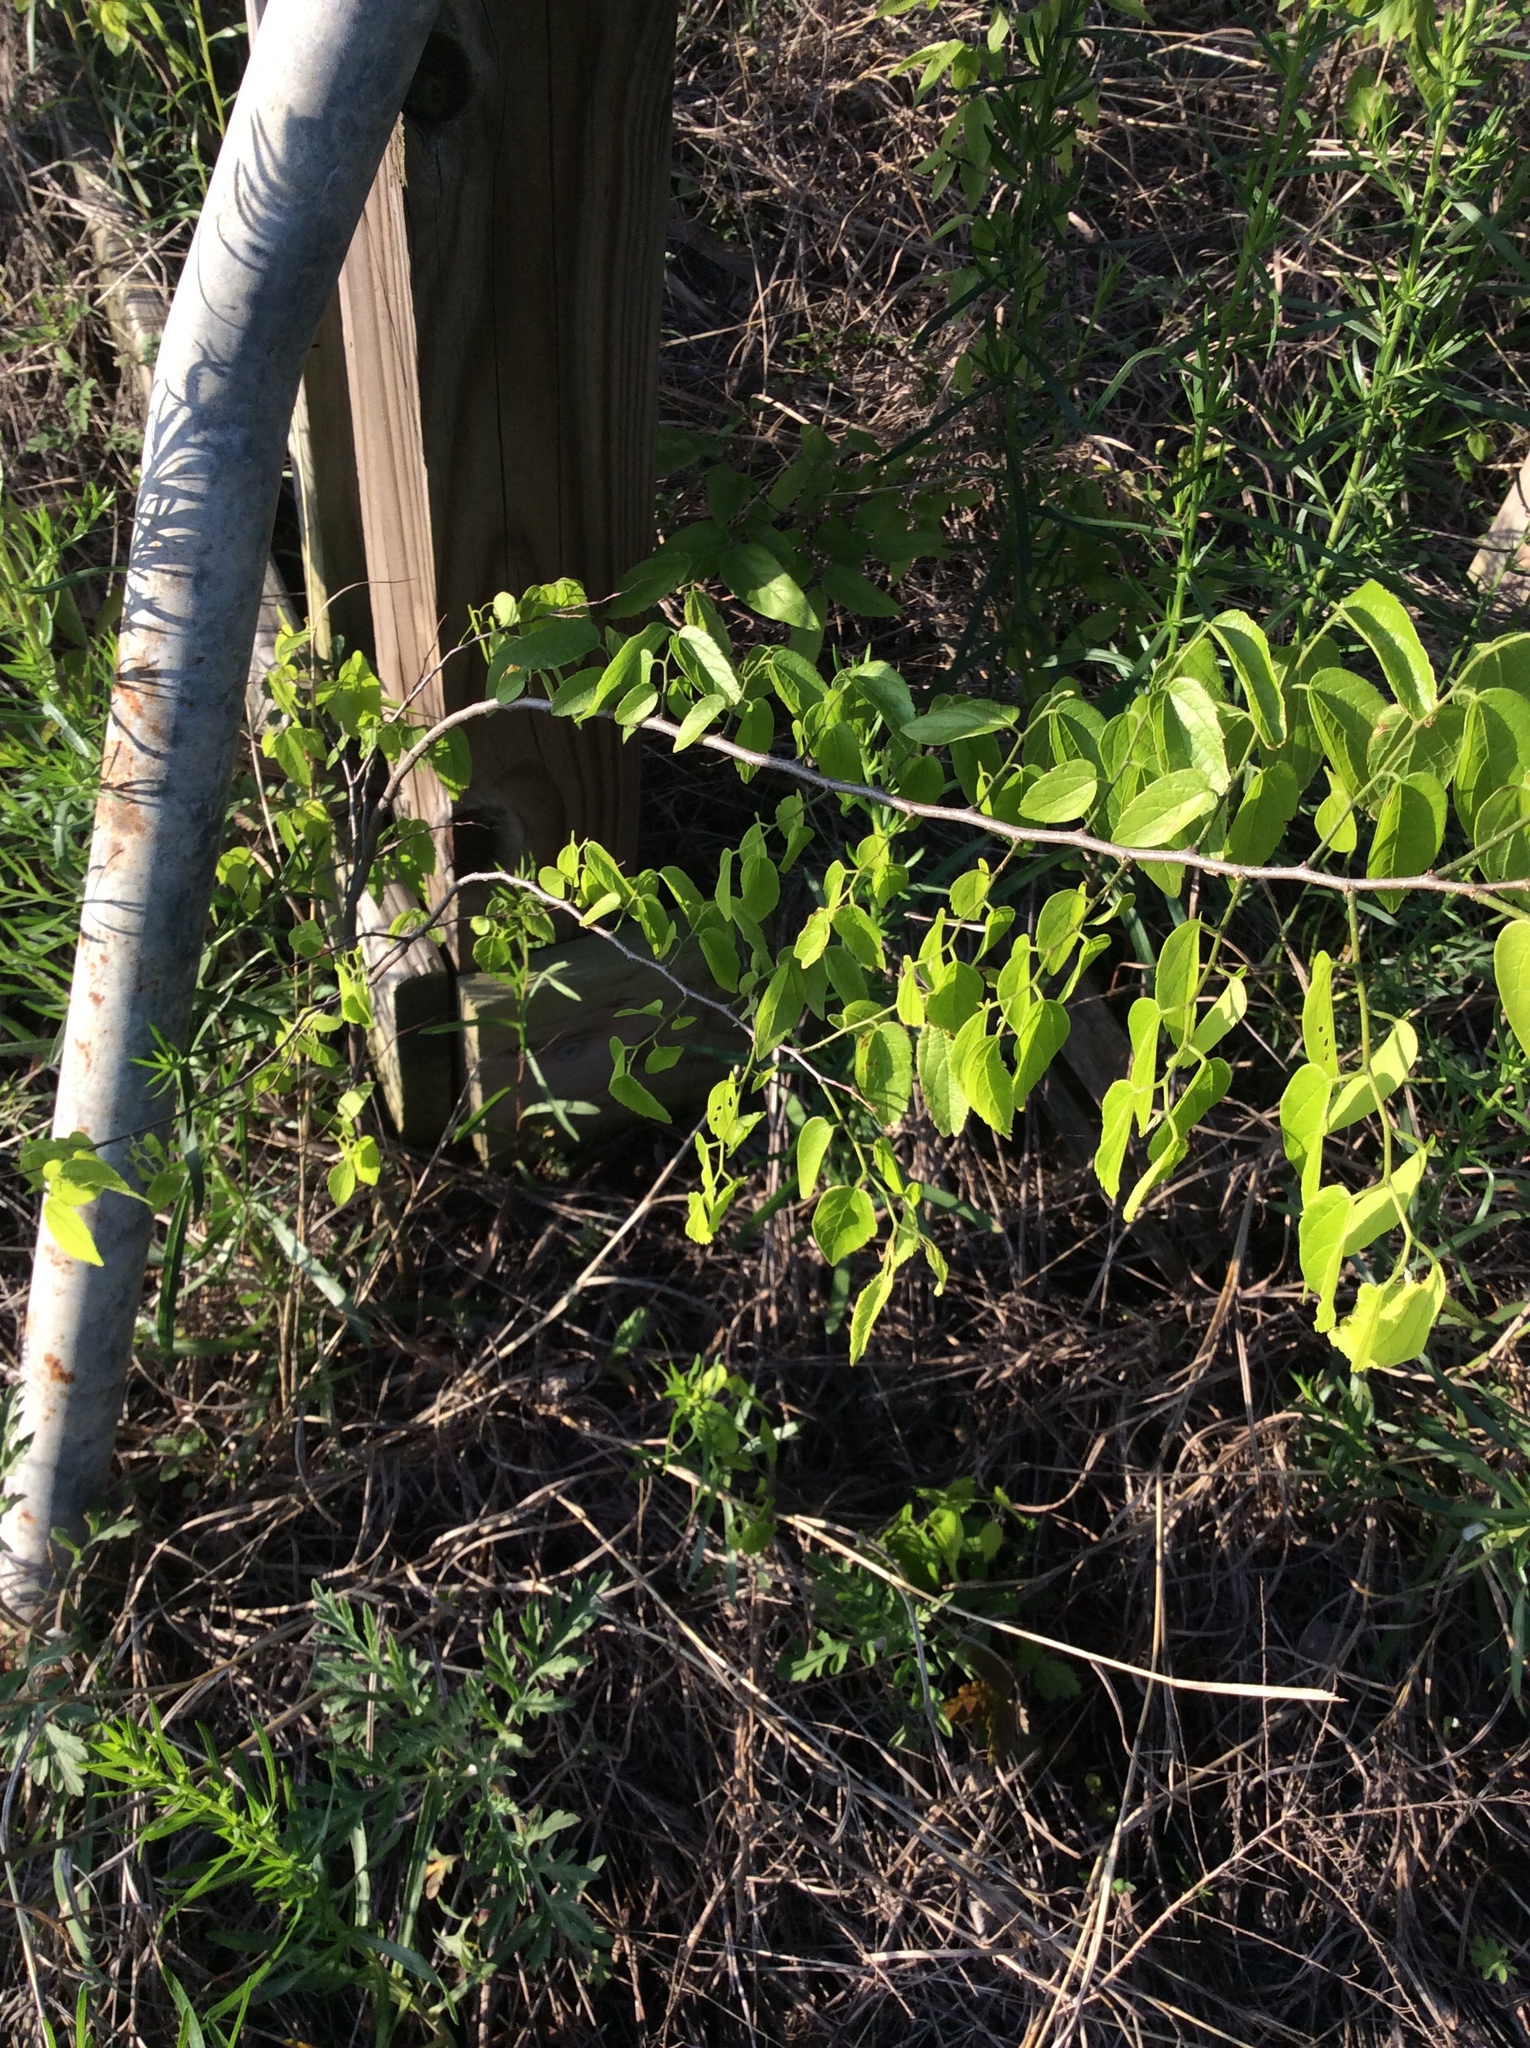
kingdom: Plantae
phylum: Tracheophyta
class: Magnoliopsida
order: Rosales
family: Cannabaceae
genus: Celtis
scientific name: Celtis laevigata
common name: Sugarberry
